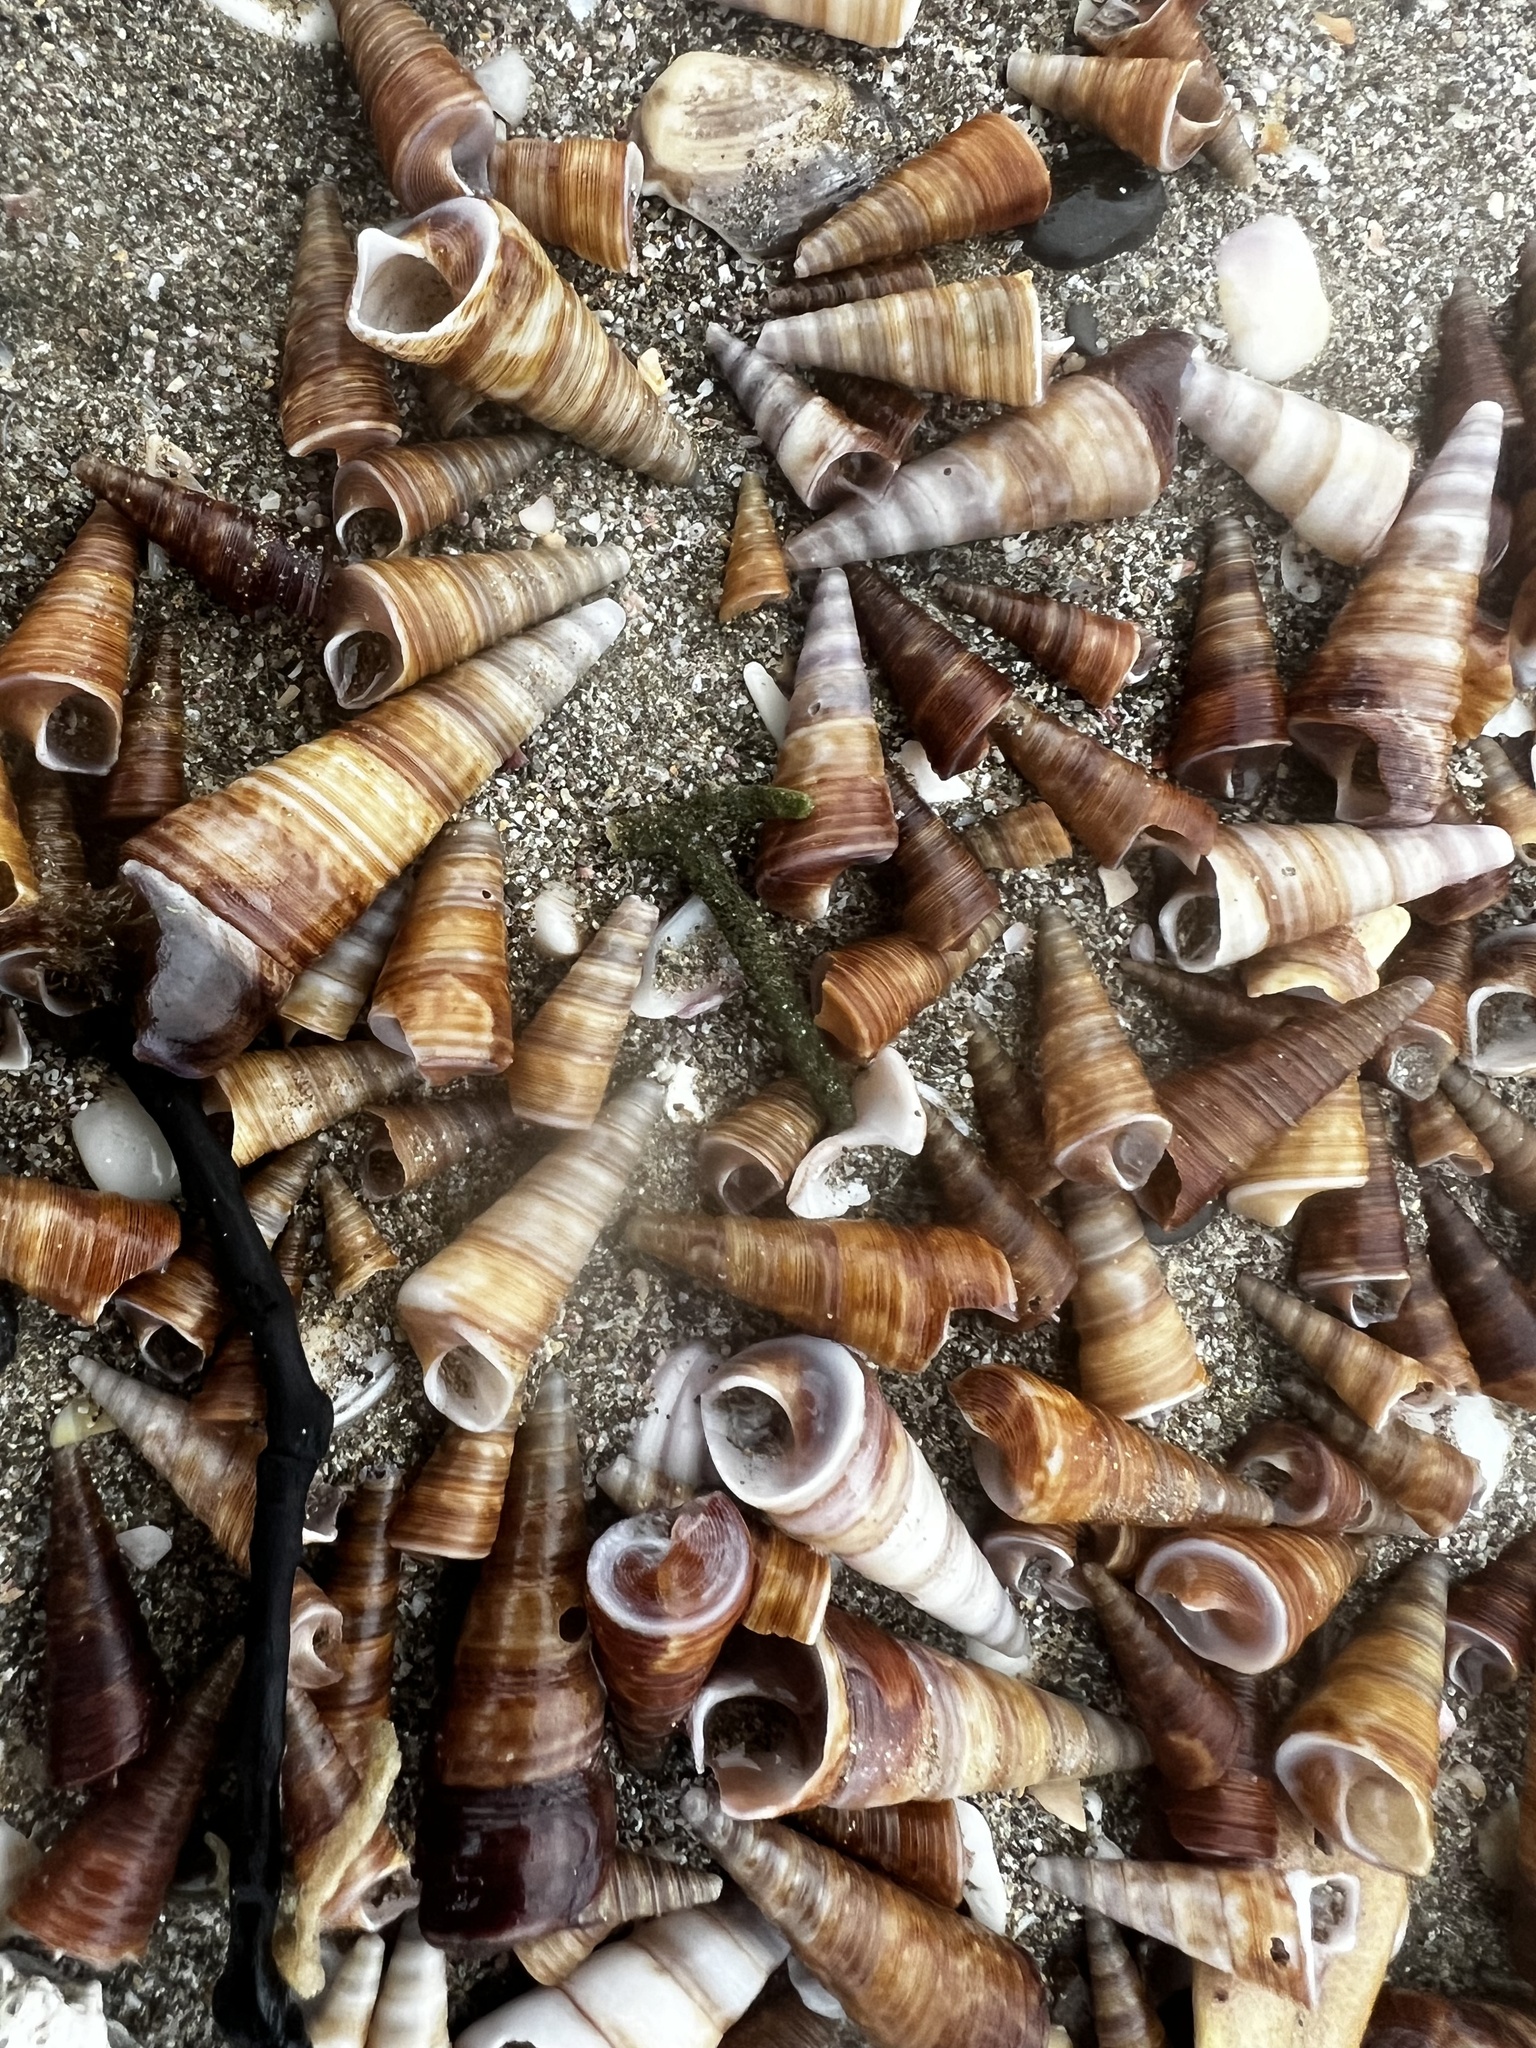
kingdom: Animalia
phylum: Mollusca
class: Gastropoda
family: Turritellidae
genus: Maoricolpus
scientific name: Maoricolpus roseus
